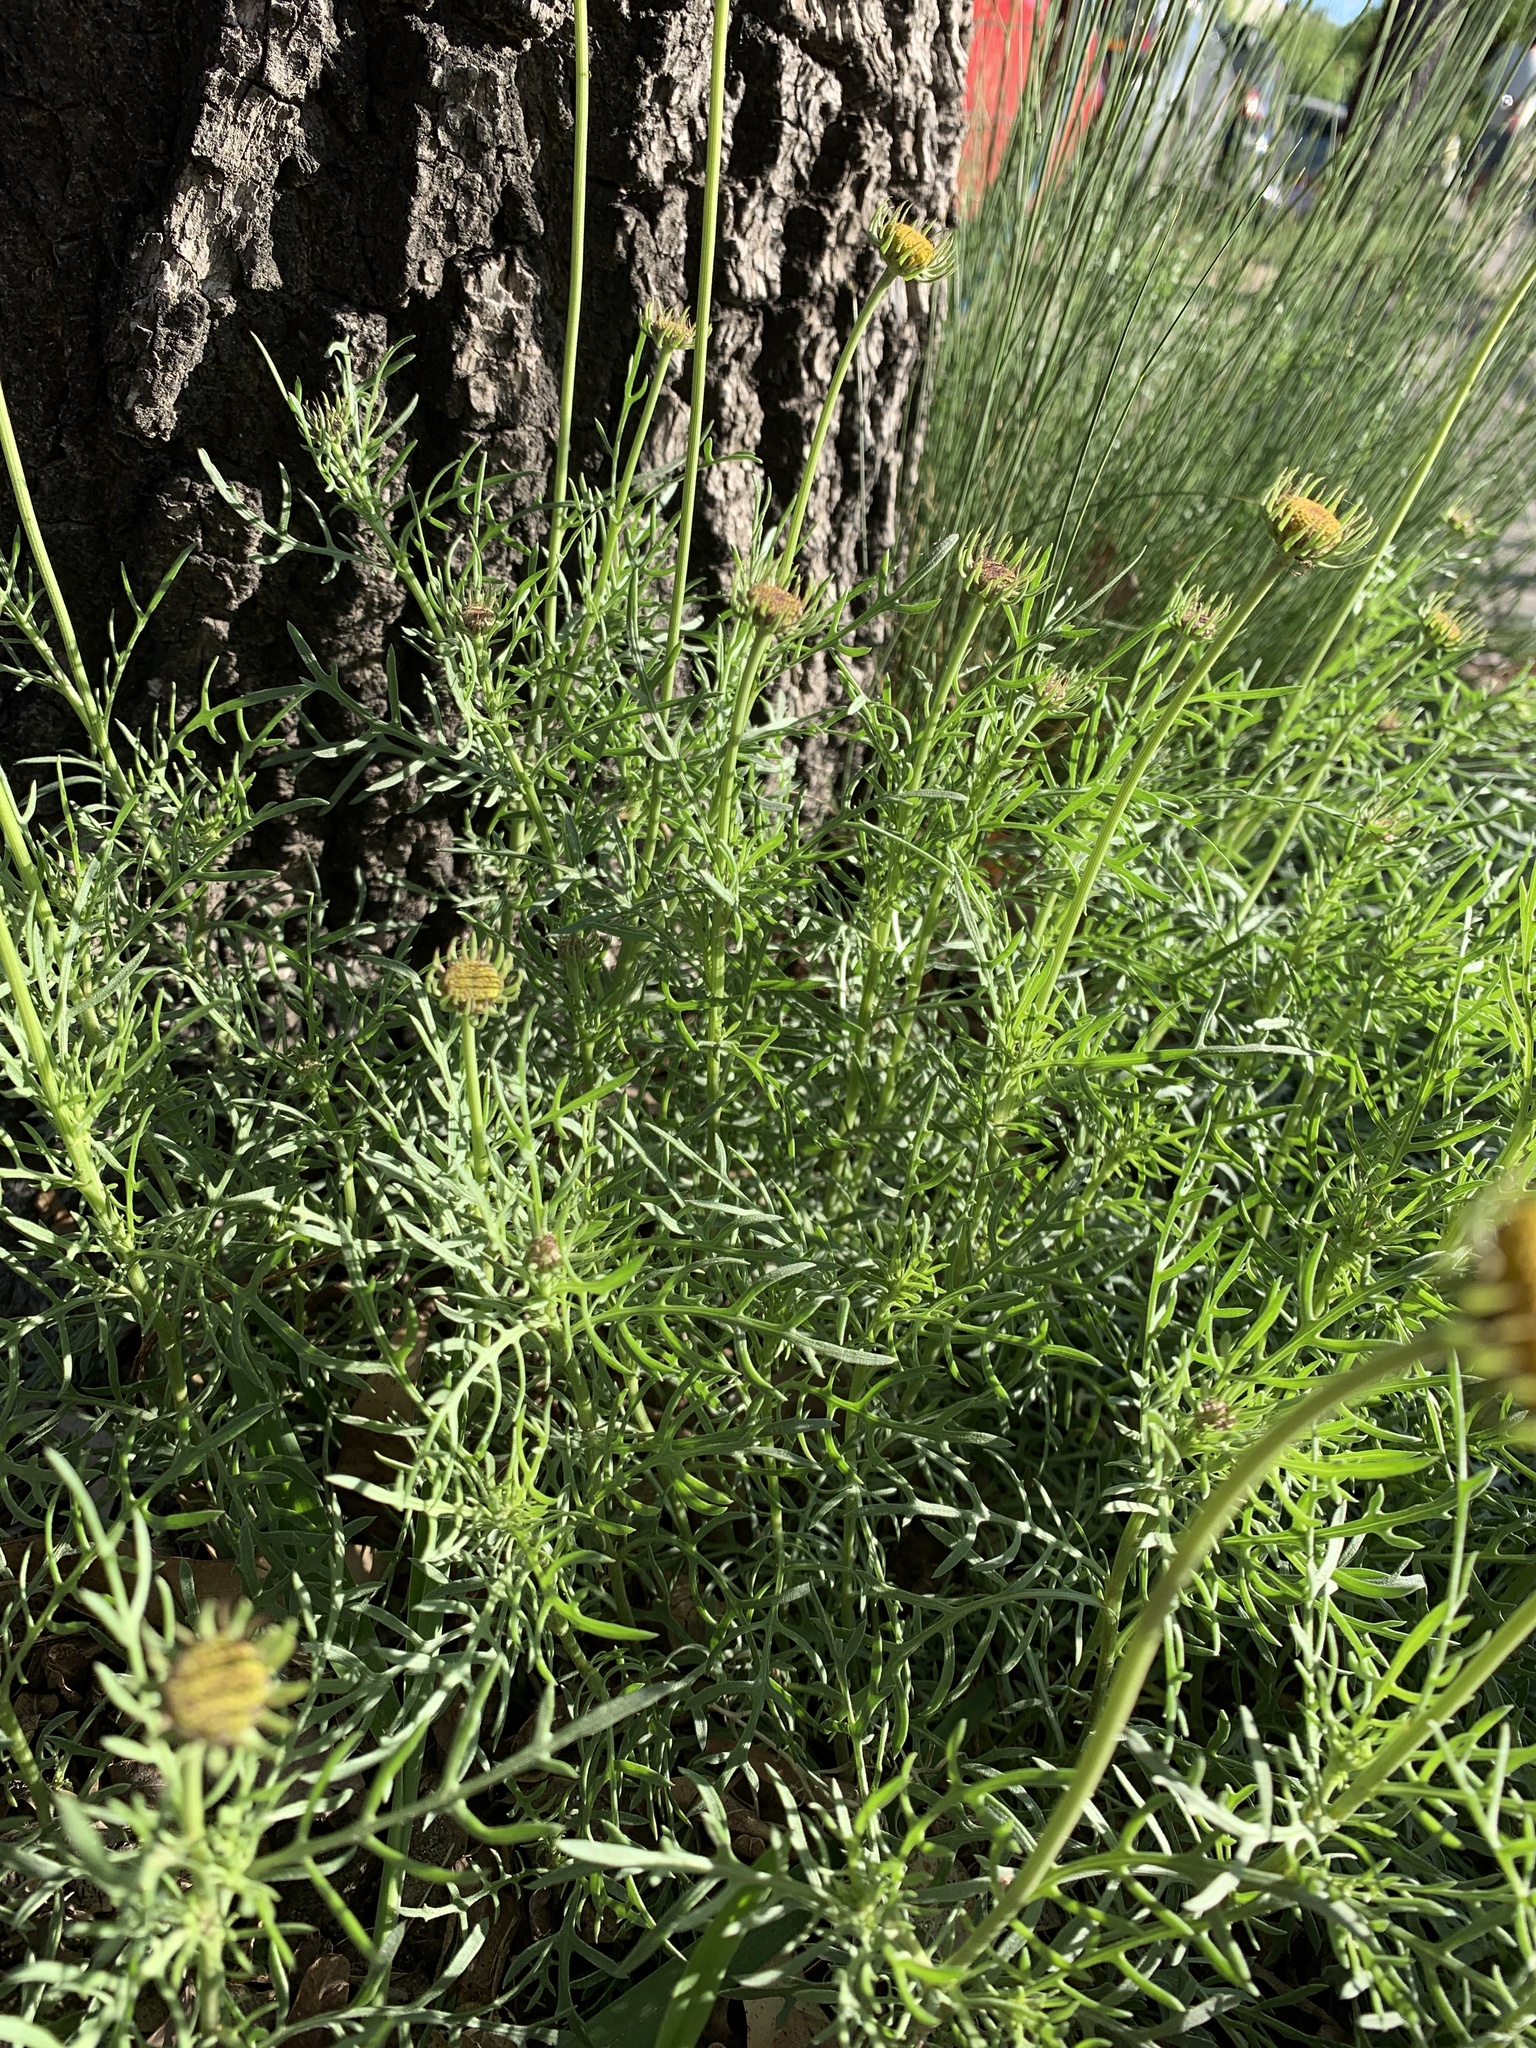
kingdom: Plantae
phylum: Tracheophyta
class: Magnoliopsida
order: Asterales
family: Asteraceae
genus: Gaillardia
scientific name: Gaillardia megapotamica
